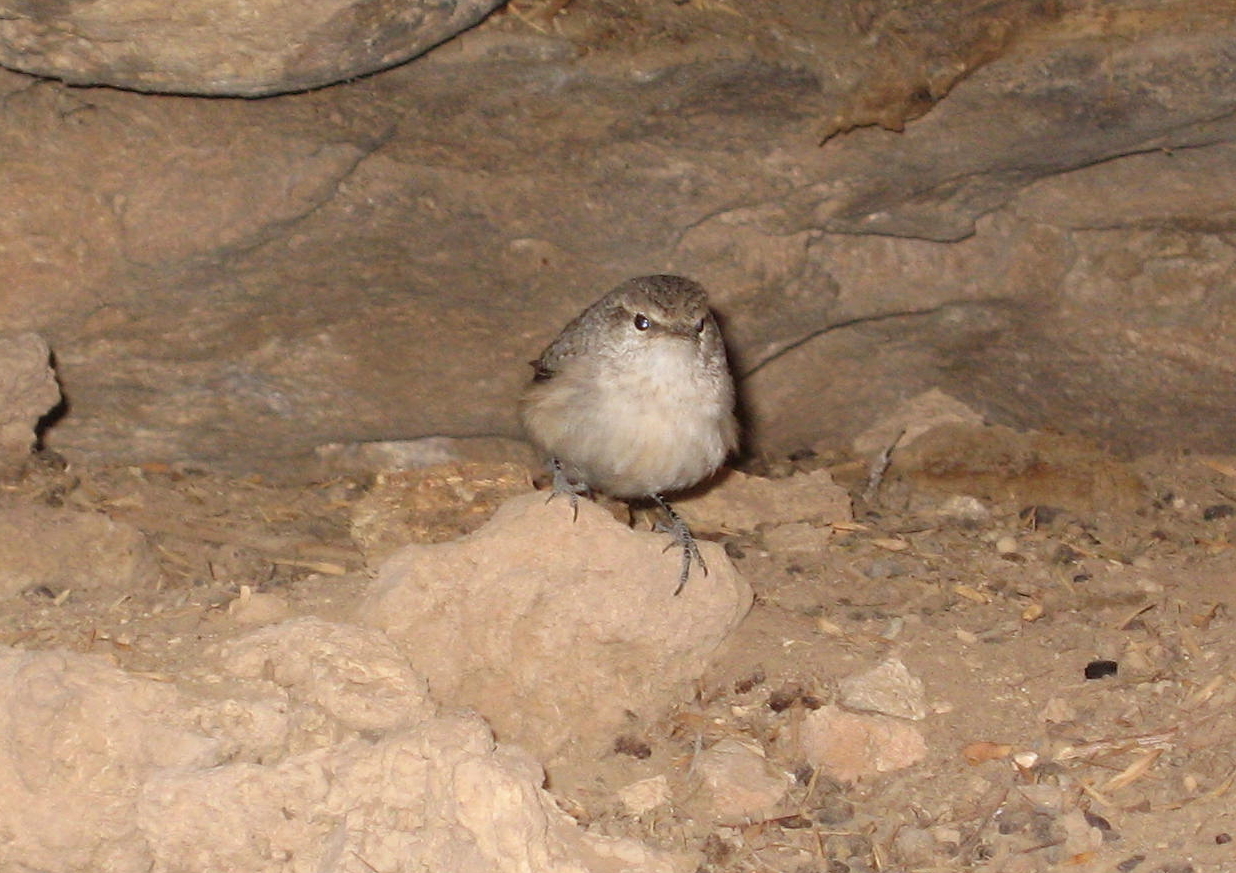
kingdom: Animalia
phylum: Chordata
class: Aves
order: Passeriformes
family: Troglodytidae
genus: Salpinctes
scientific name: Salpinctes obsoletus
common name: Rock wren
